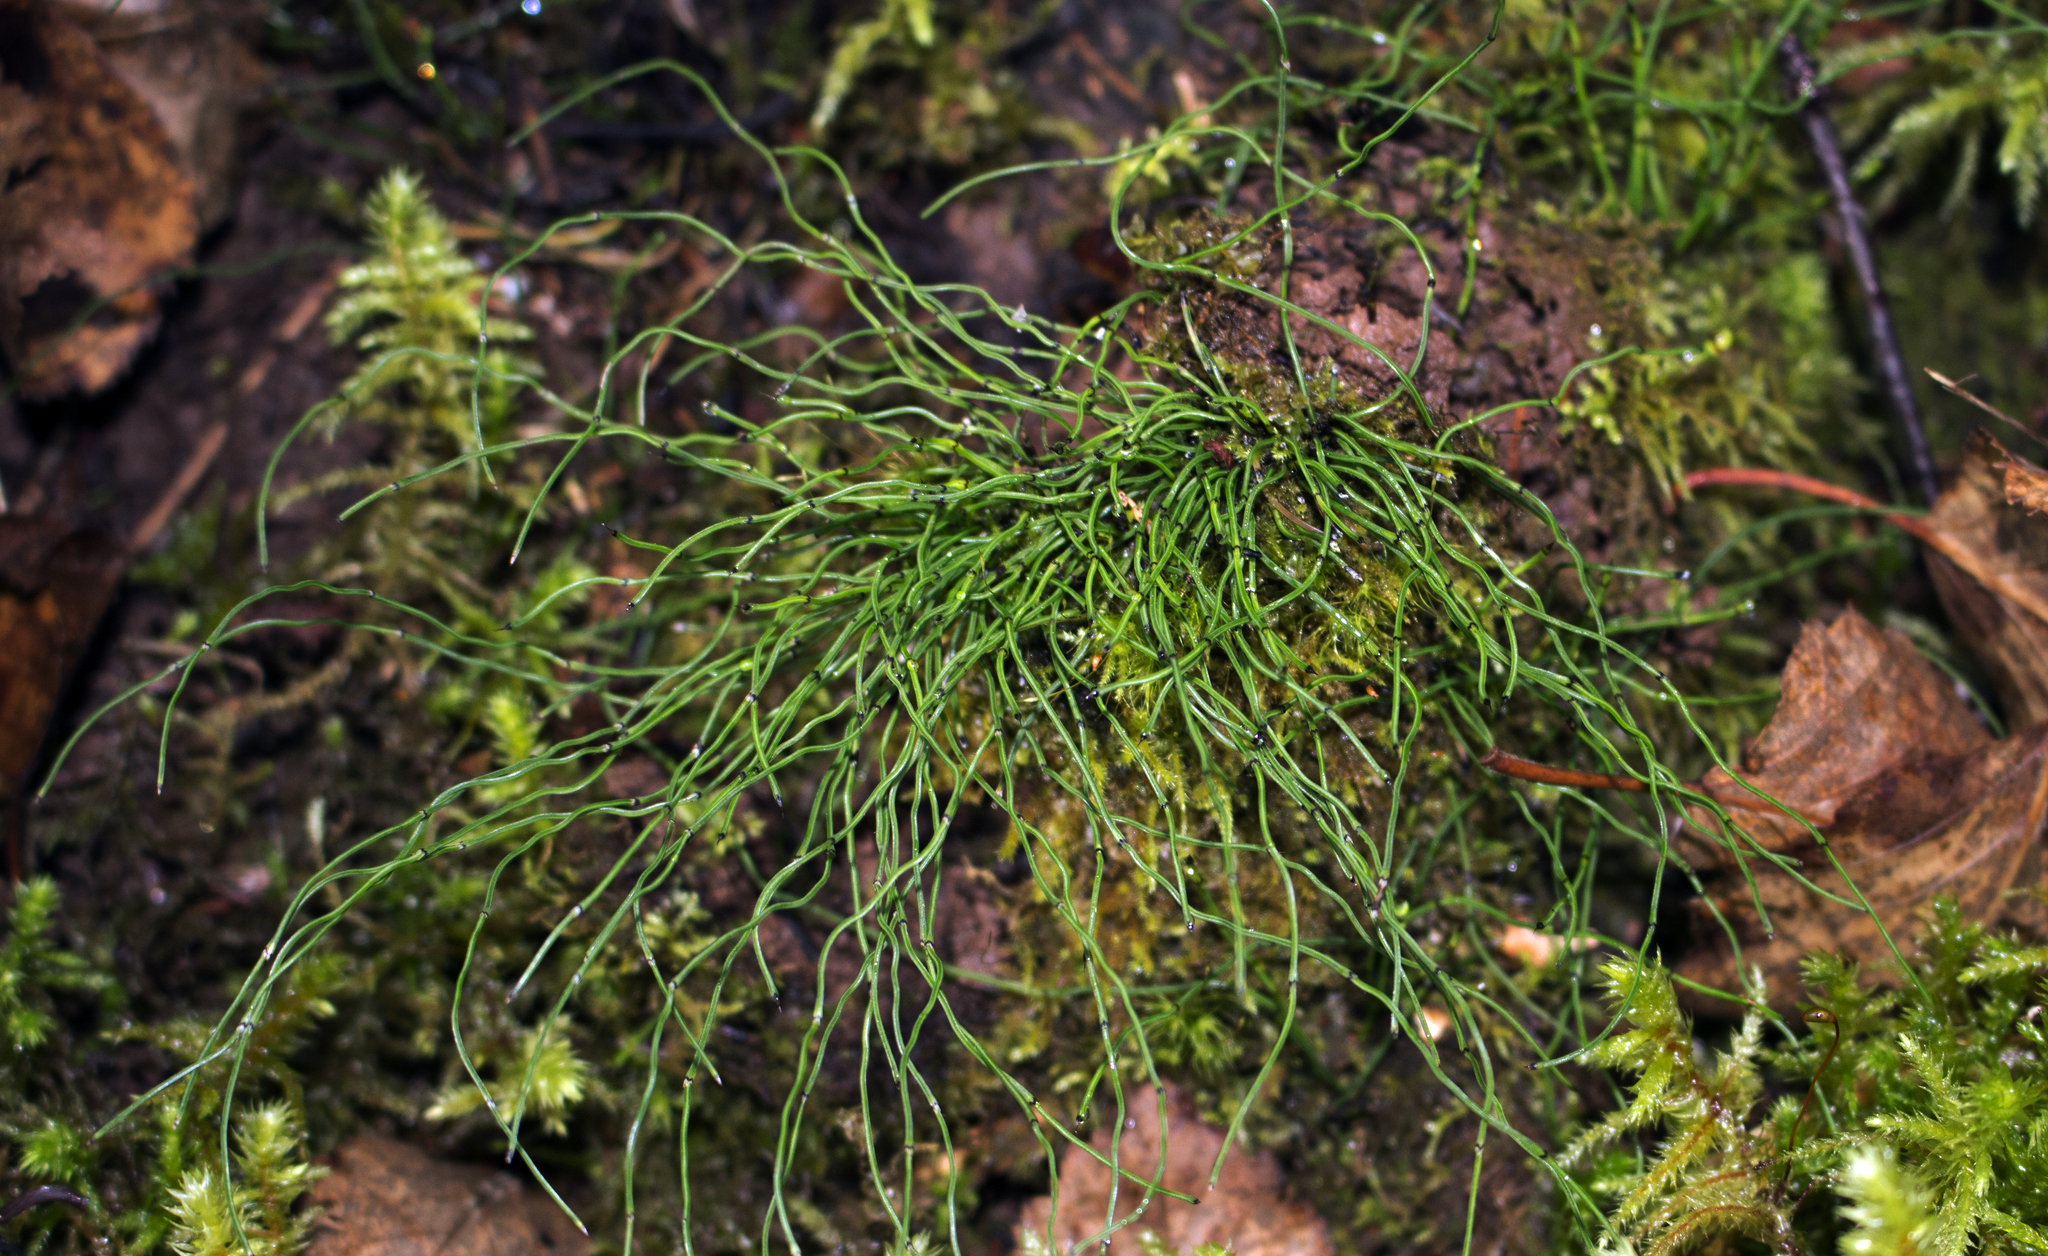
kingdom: Plantae
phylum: Tracheophyta
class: Polypodiopsida
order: Equisetales
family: Equisetaceae
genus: Equisetum
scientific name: Equisetum scirpoides
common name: Delicate horsetail
